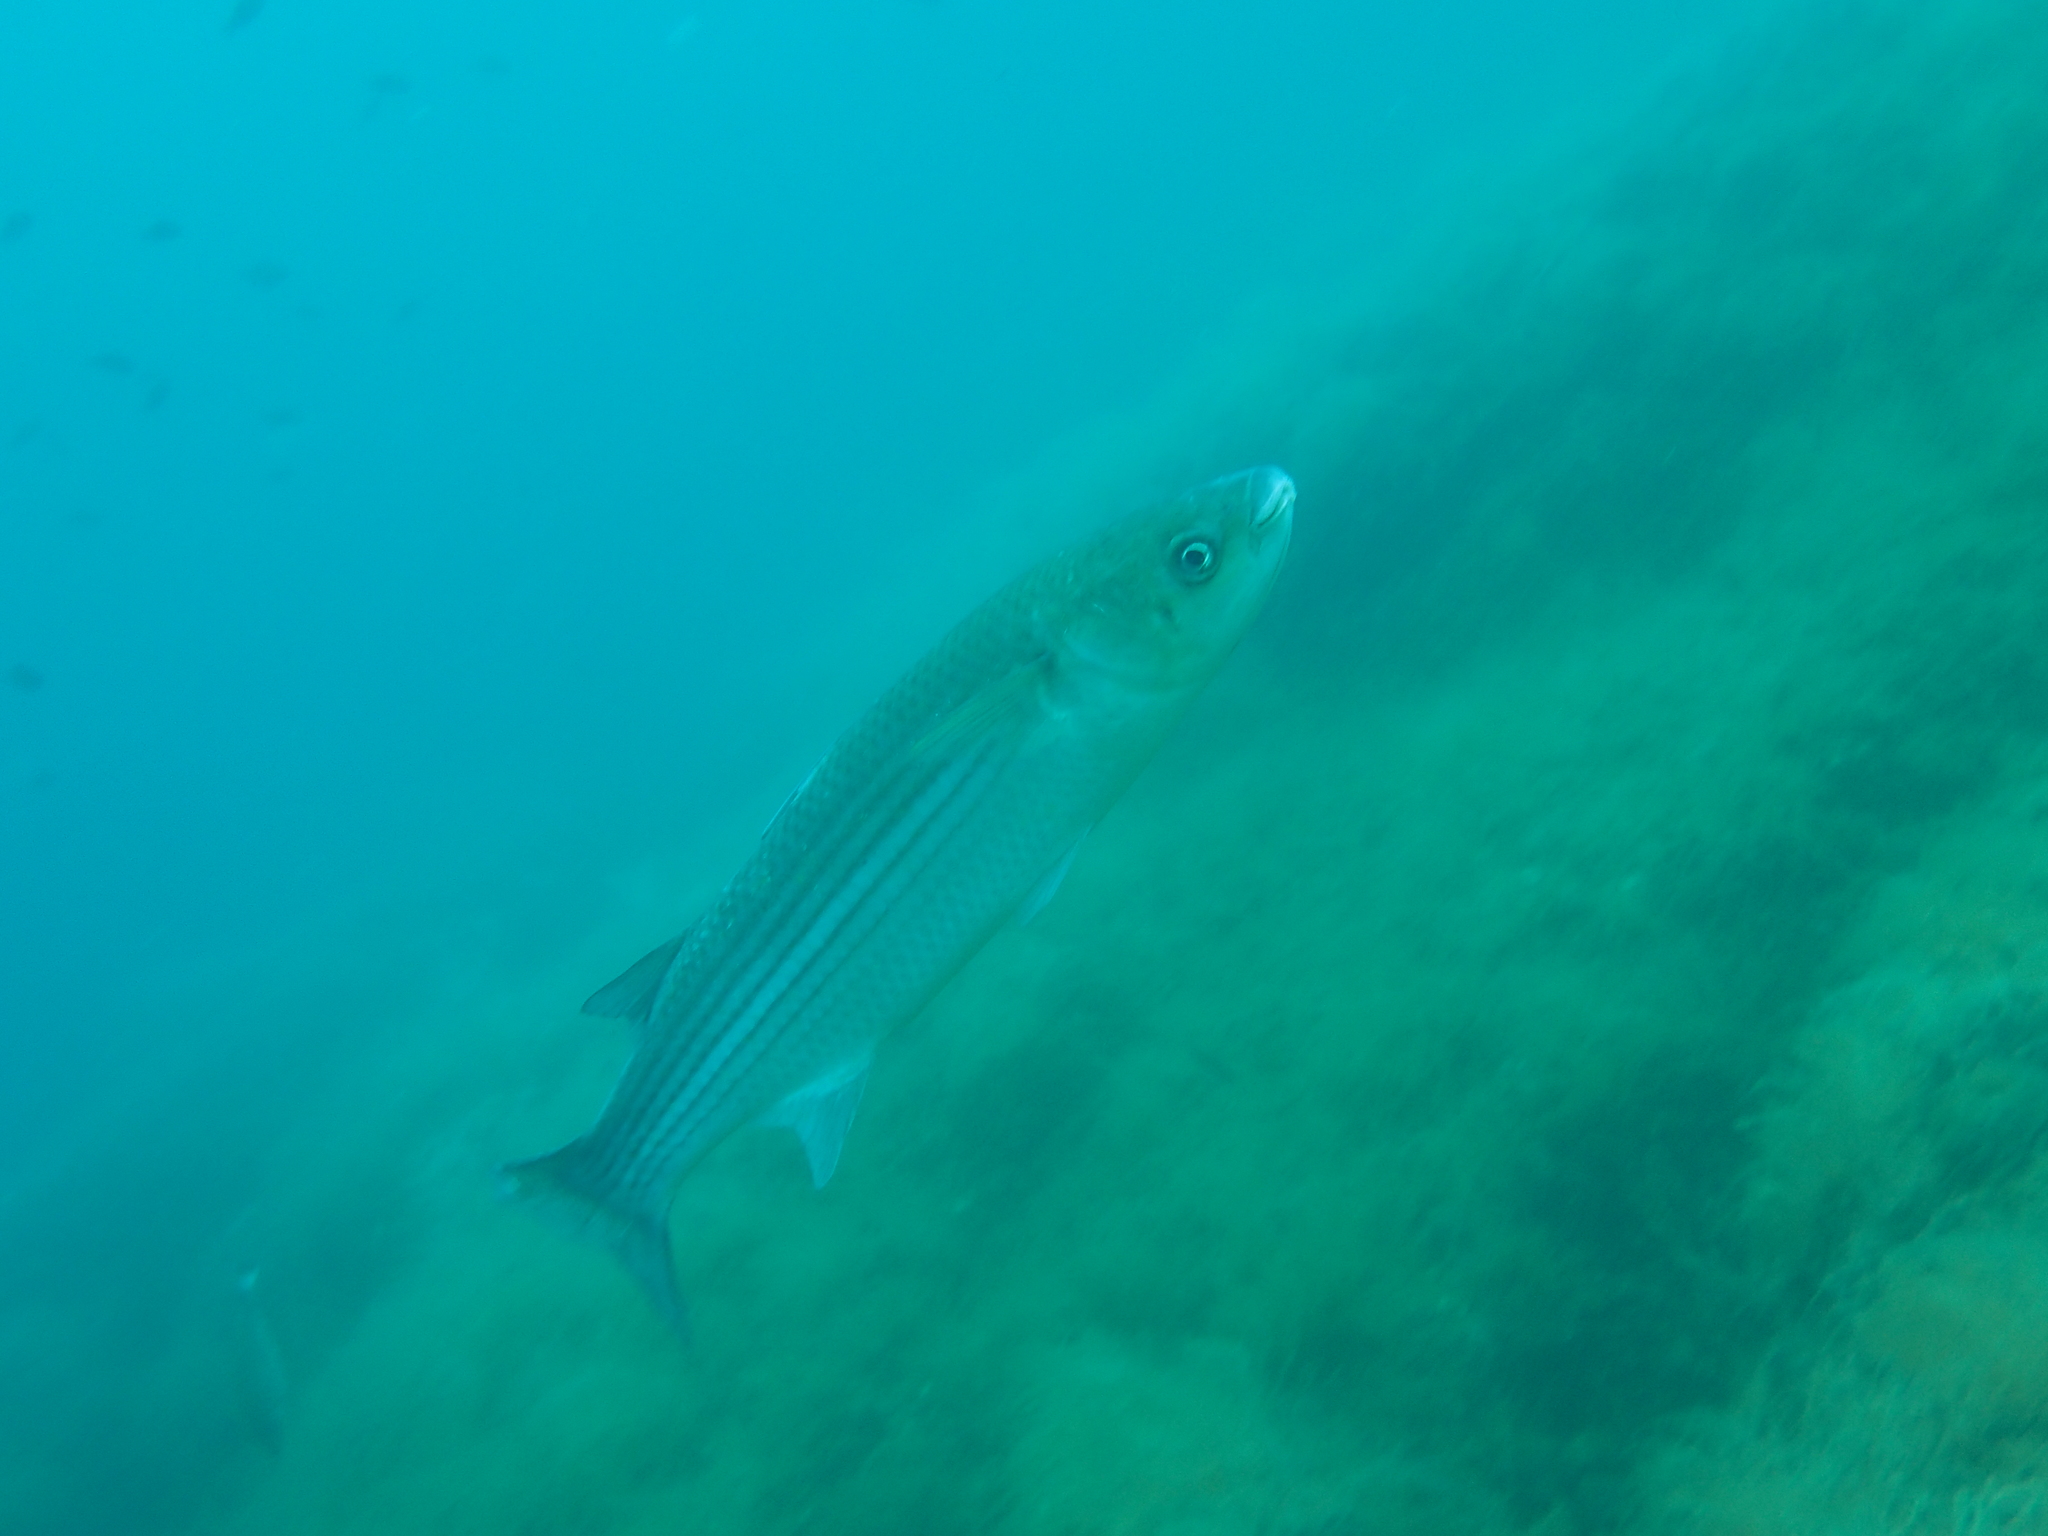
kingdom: Animalia
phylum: Chordata
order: Mugiliformes
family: Mugilidae
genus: Chelon
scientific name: Chelon labrosus
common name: Thick-lipped mullet
